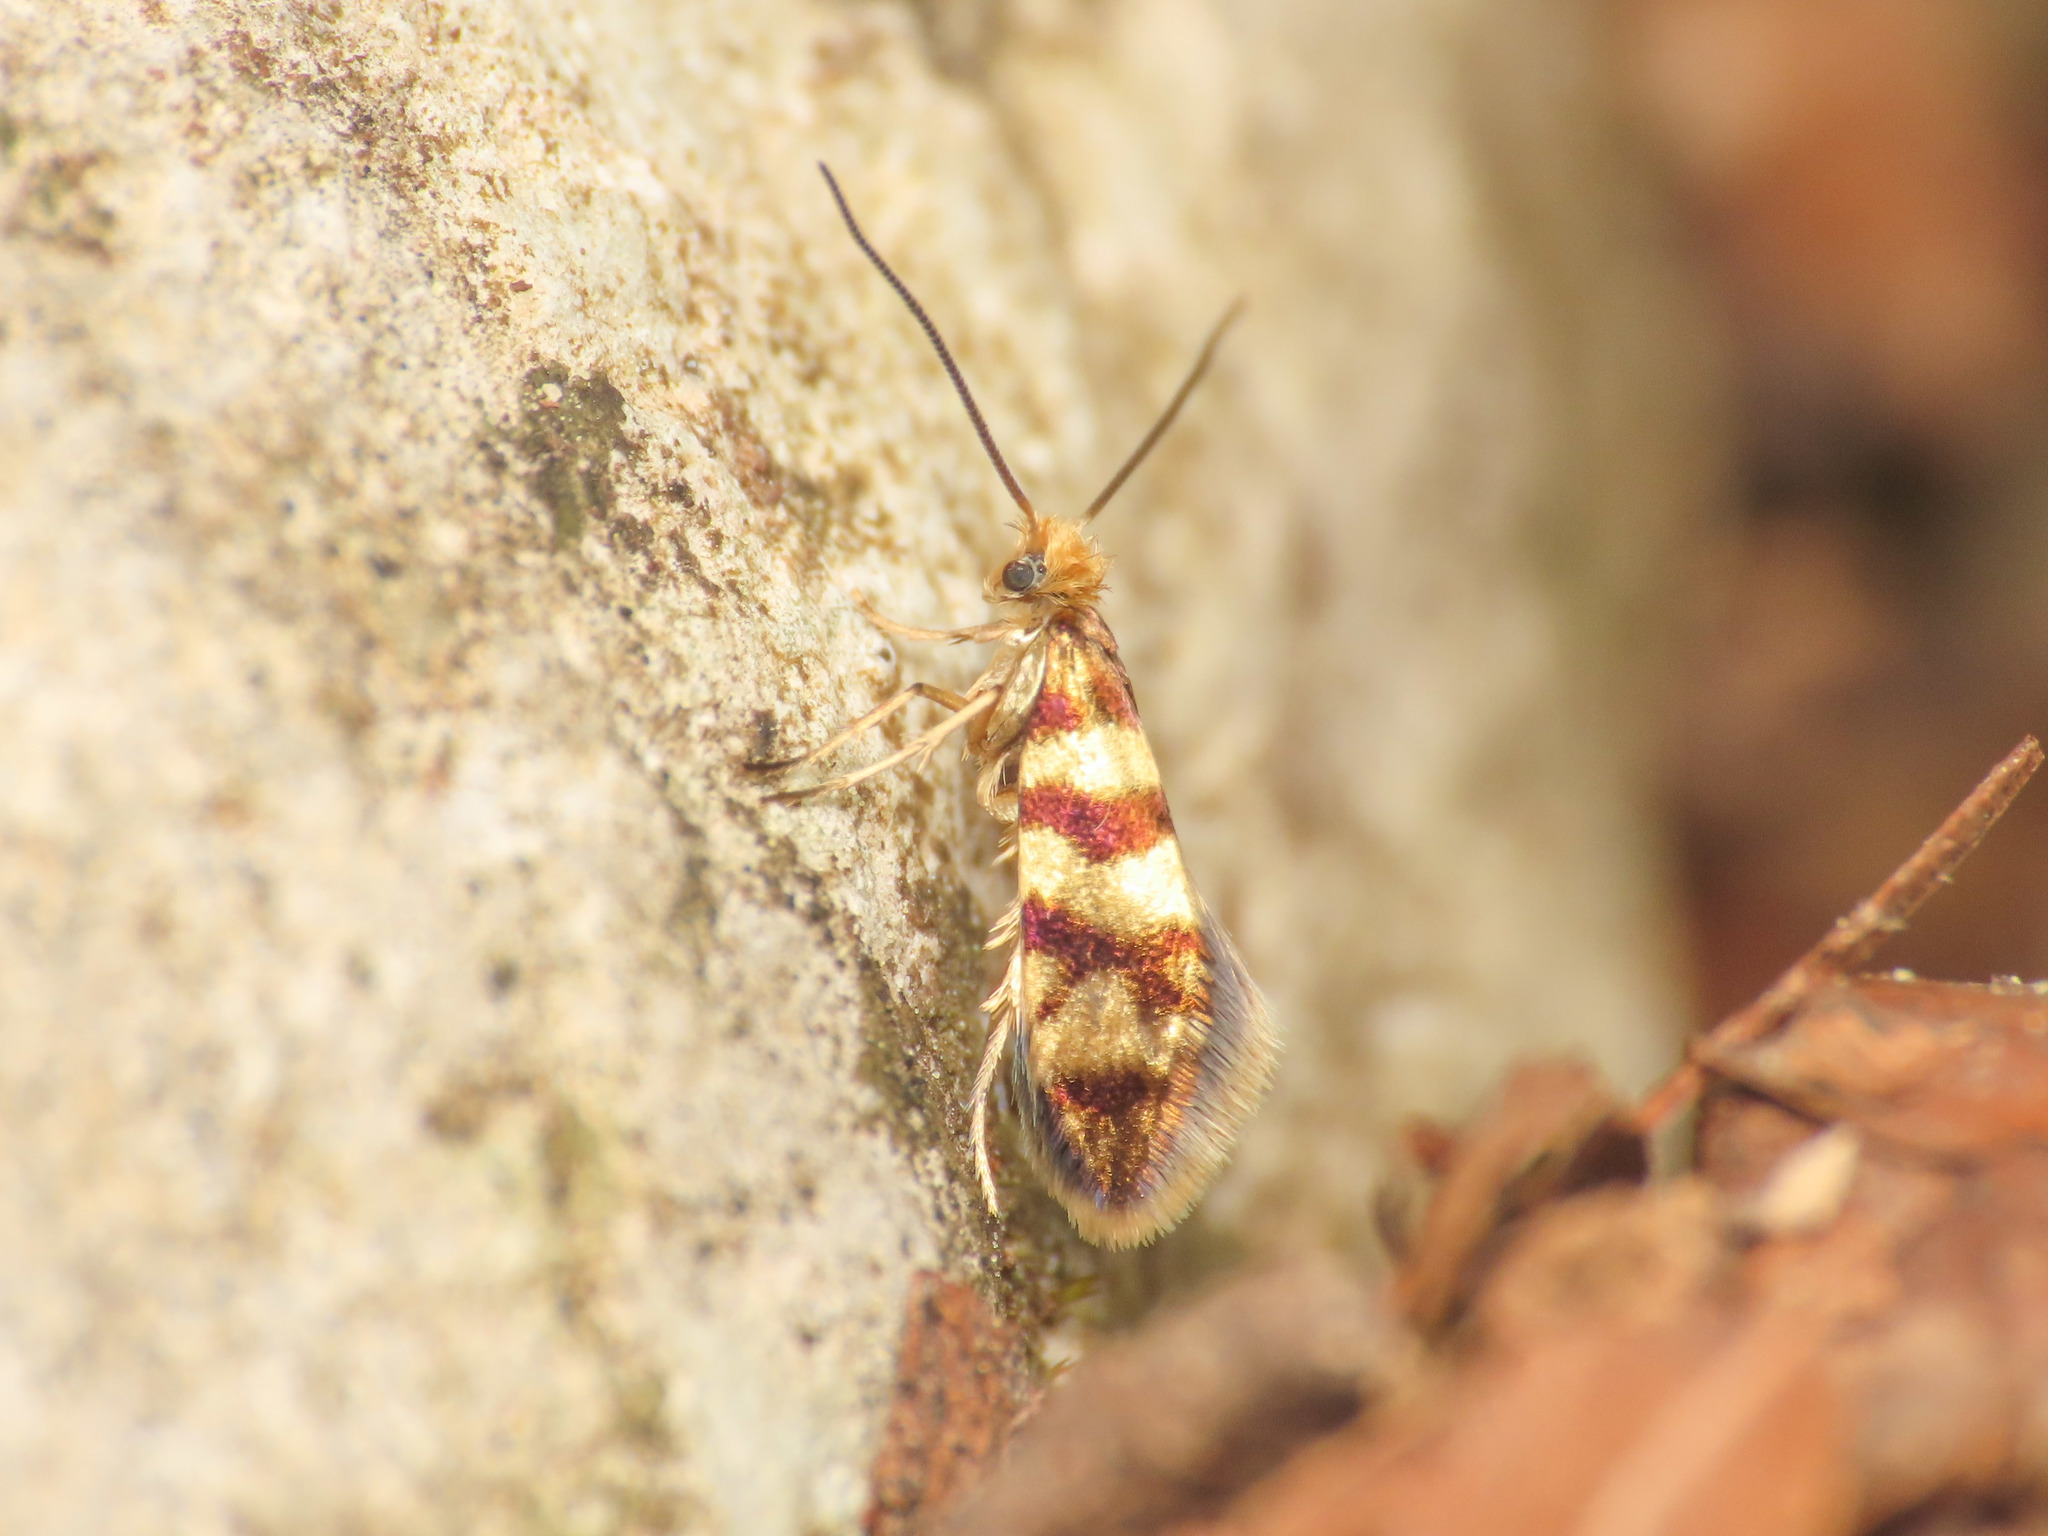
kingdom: Animalia
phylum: Arthropoda
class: Insecta
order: Lepidoptera
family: Micropterigidae
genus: Micropterix
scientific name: Micropterix rothenbachii
